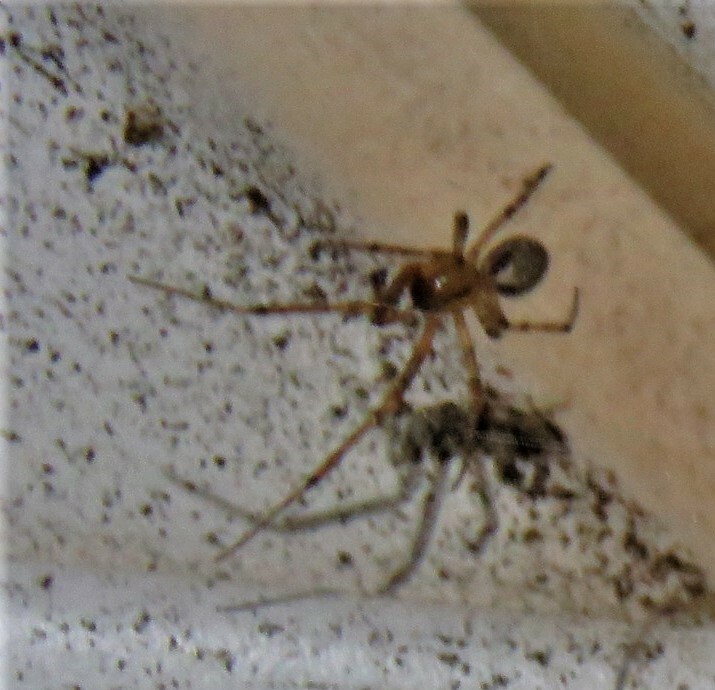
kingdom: Animalia
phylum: Arthropoda
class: Arachnida
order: Araneae
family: Araneidae
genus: Zygiella
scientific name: Zygiella atrica
